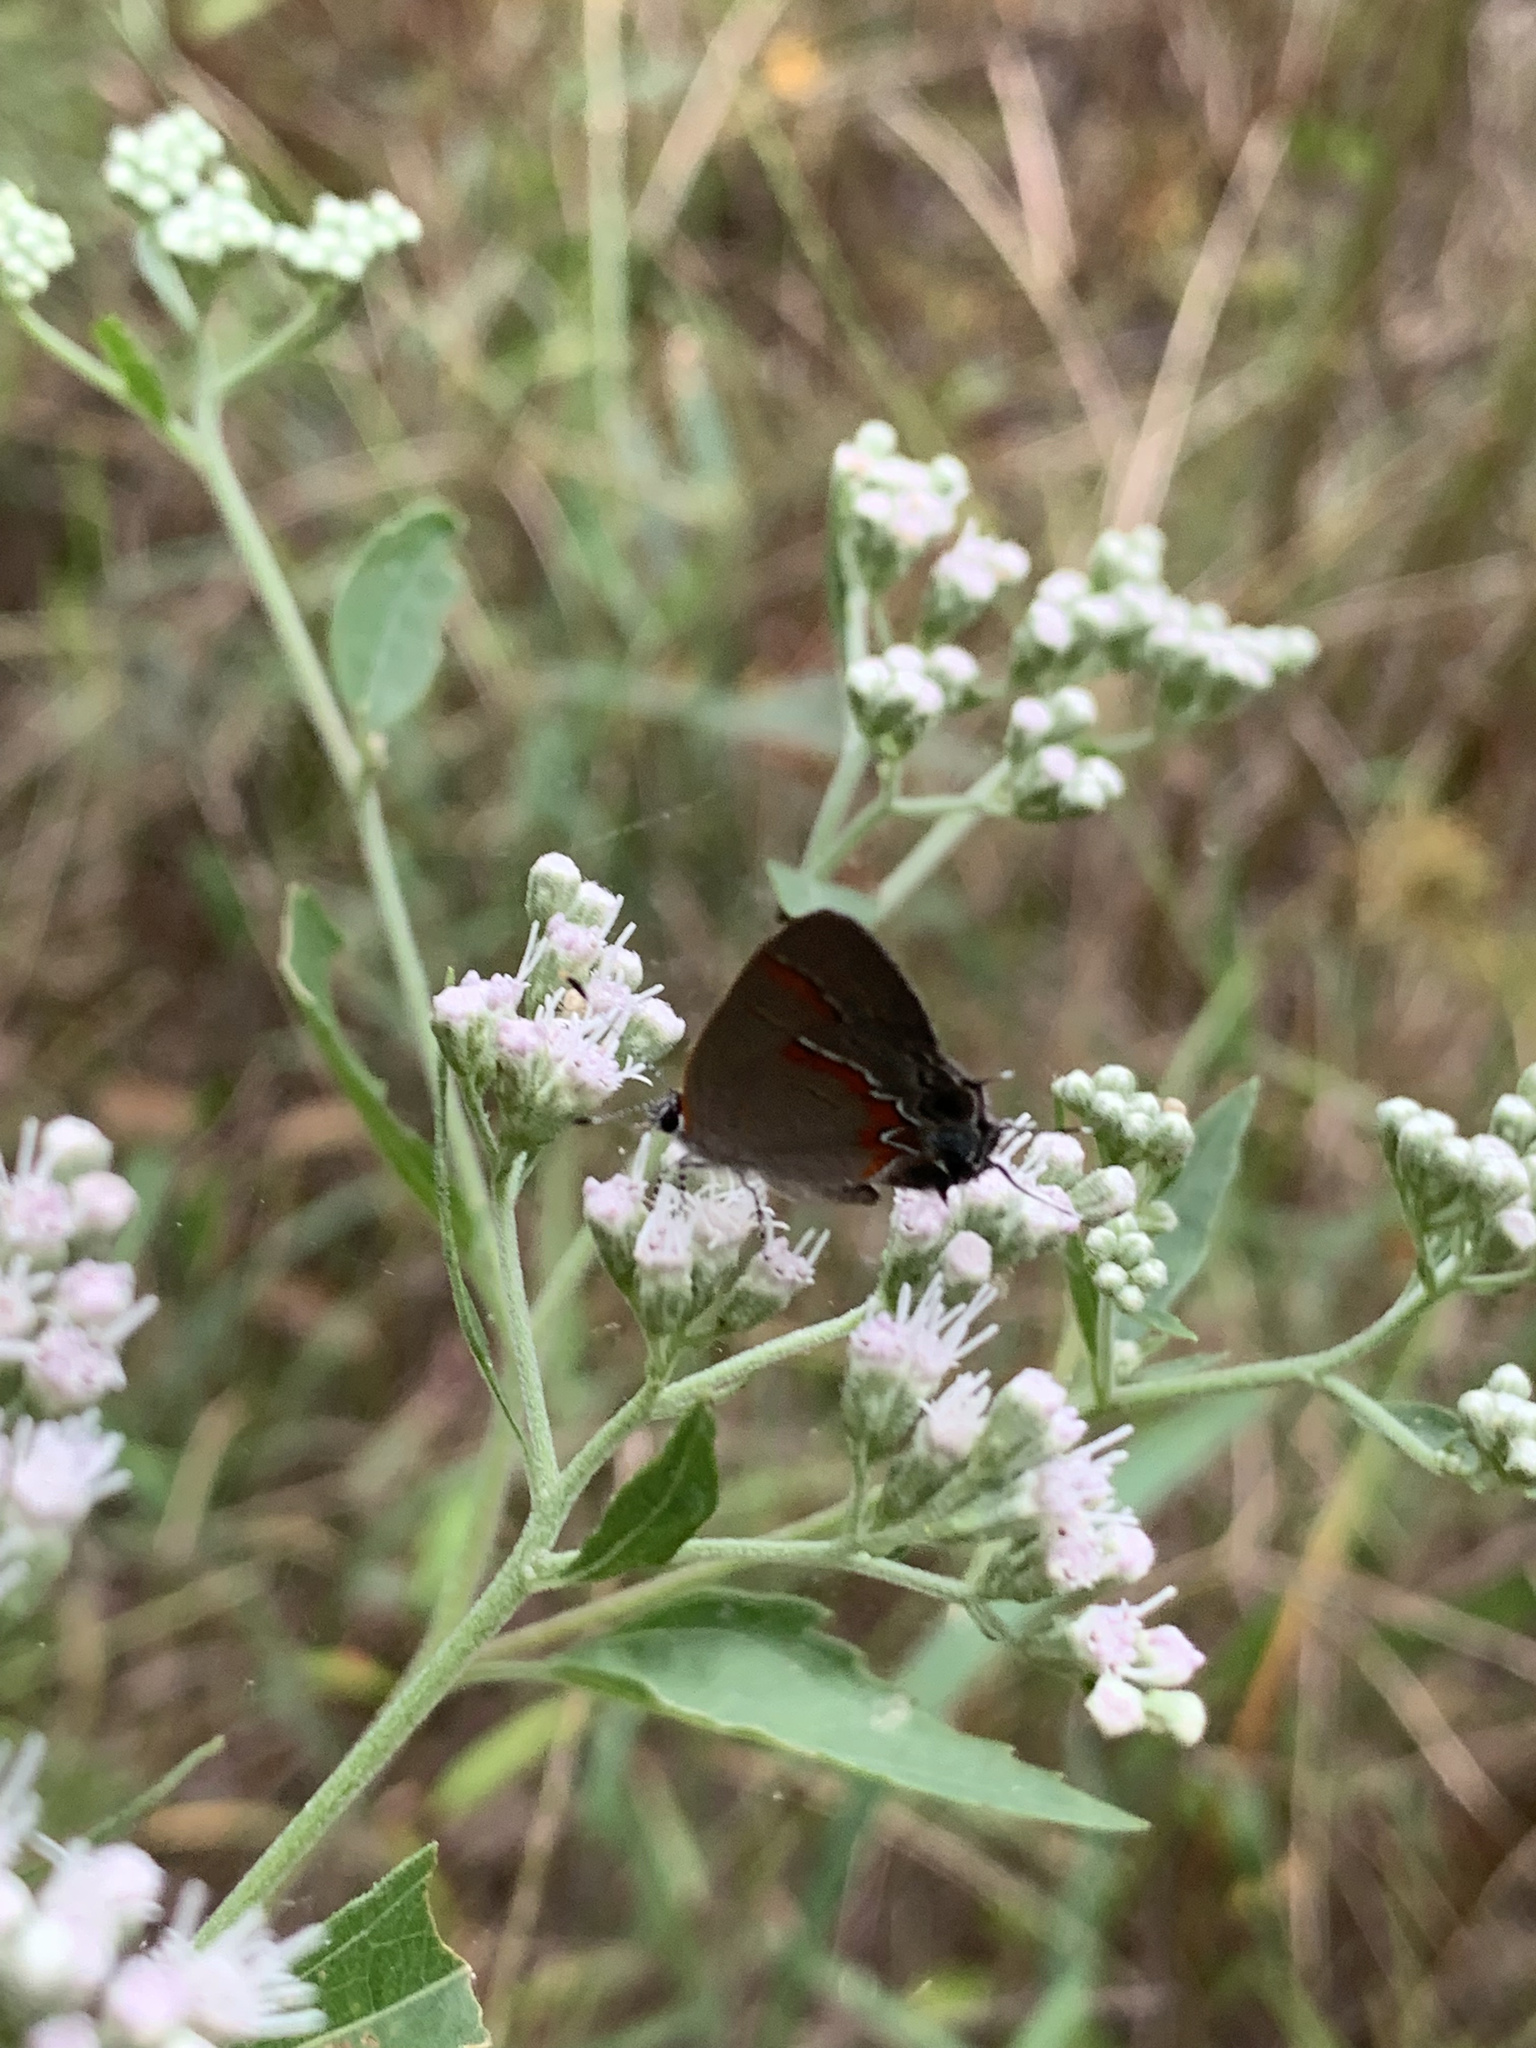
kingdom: Animalia
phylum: Arthropoda
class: Insecta
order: Lepidoptera
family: Lycaenidae
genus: Calycopis
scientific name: Calycopis cecrops
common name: Red-banded hairstreak
